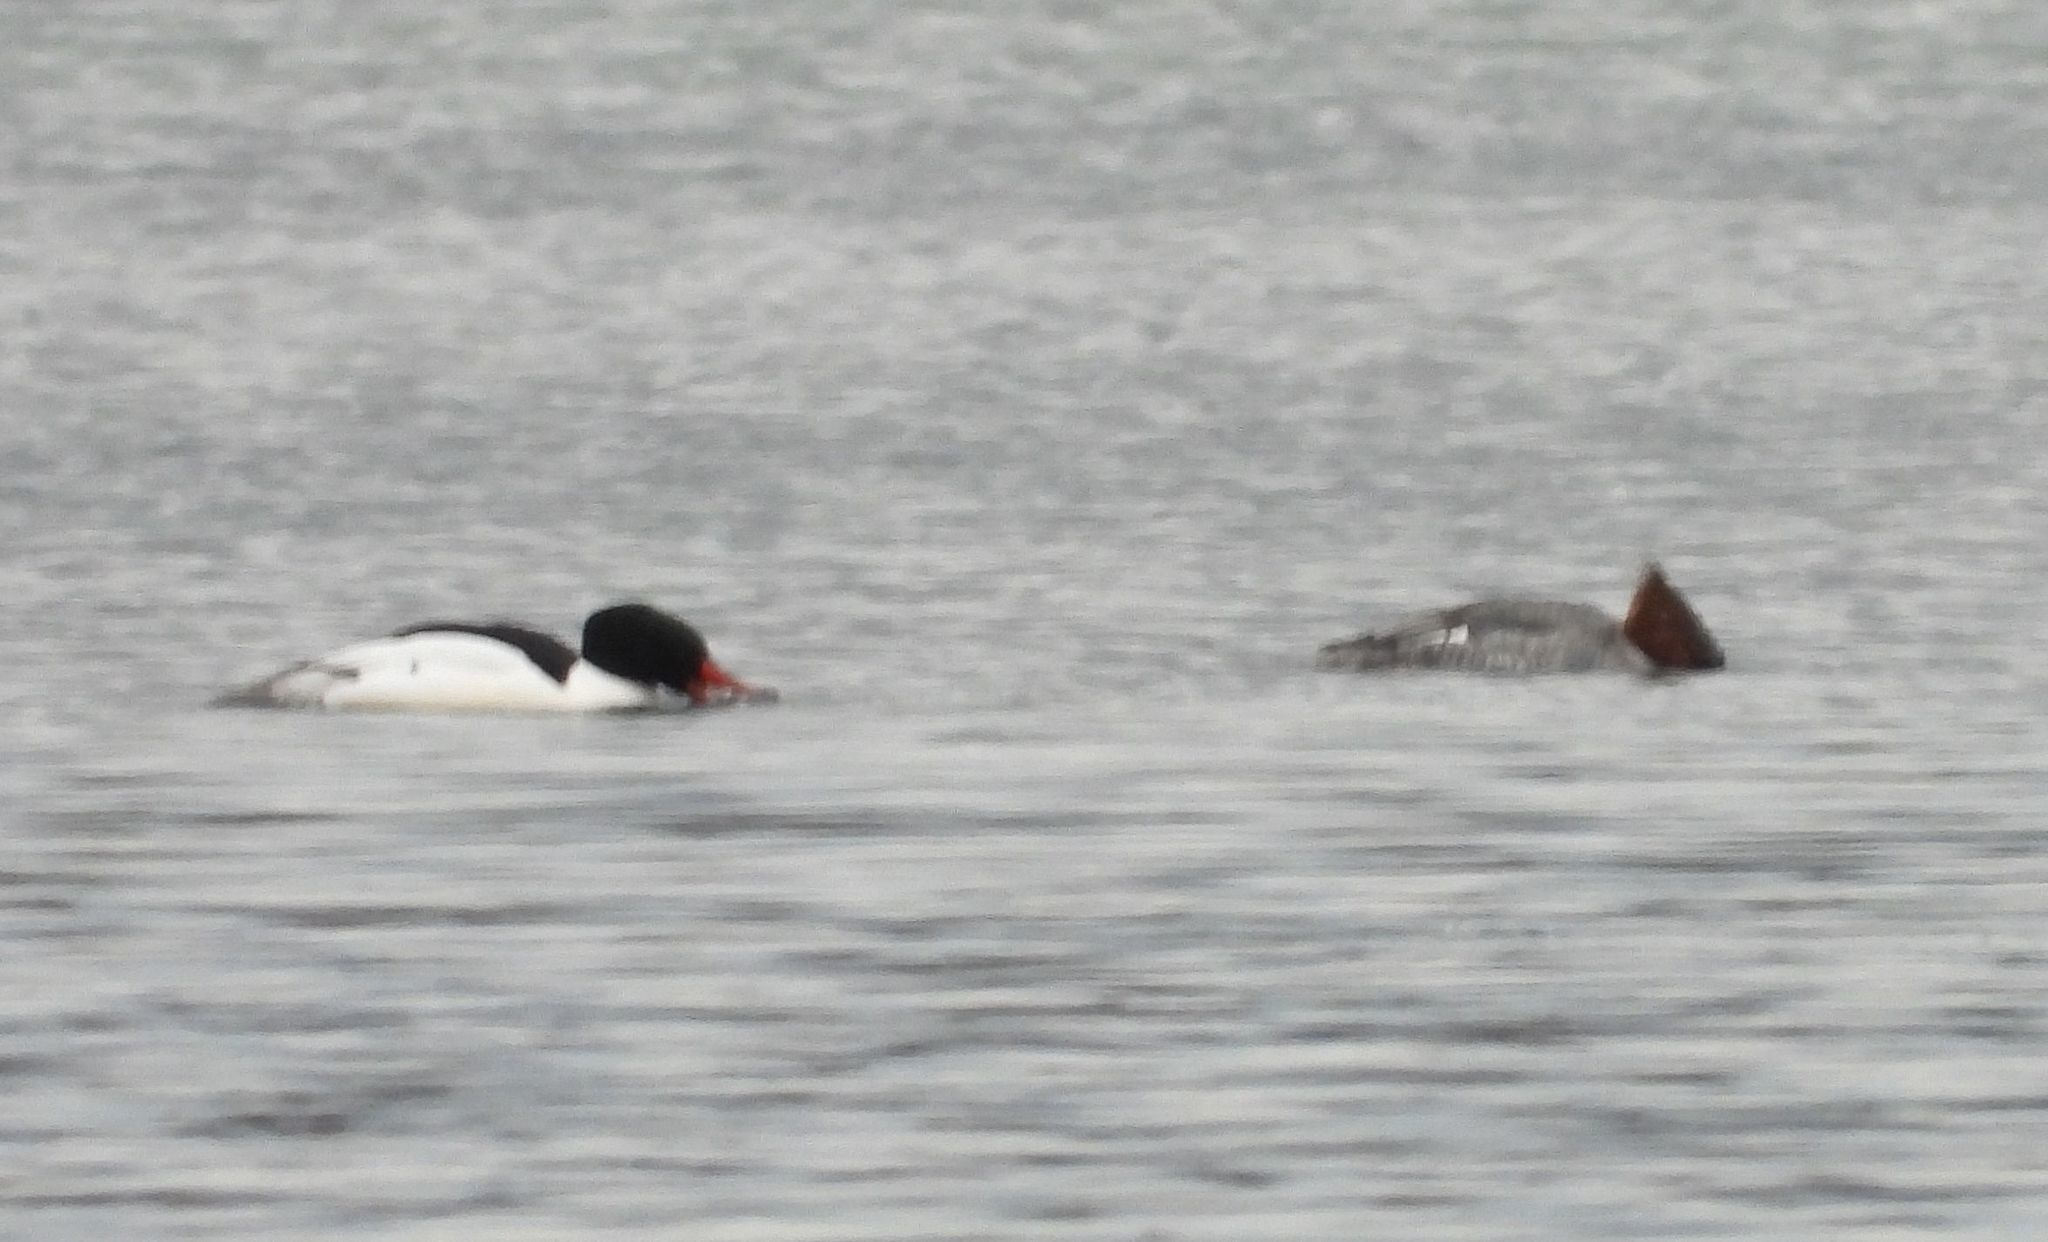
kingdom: Animalia
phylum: Chordata
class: Aves
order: Anseriformes
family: Anatidae
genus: Mergus
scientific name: Mergus merganser
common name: Common merganser
